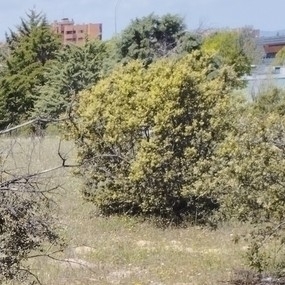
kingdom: Plantae
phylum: Tracheophyta
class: Magnoliopsida
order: Fagales
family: Fagaceae
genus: Quercus
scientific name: Quercus rotundifolia
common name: Holm oak
